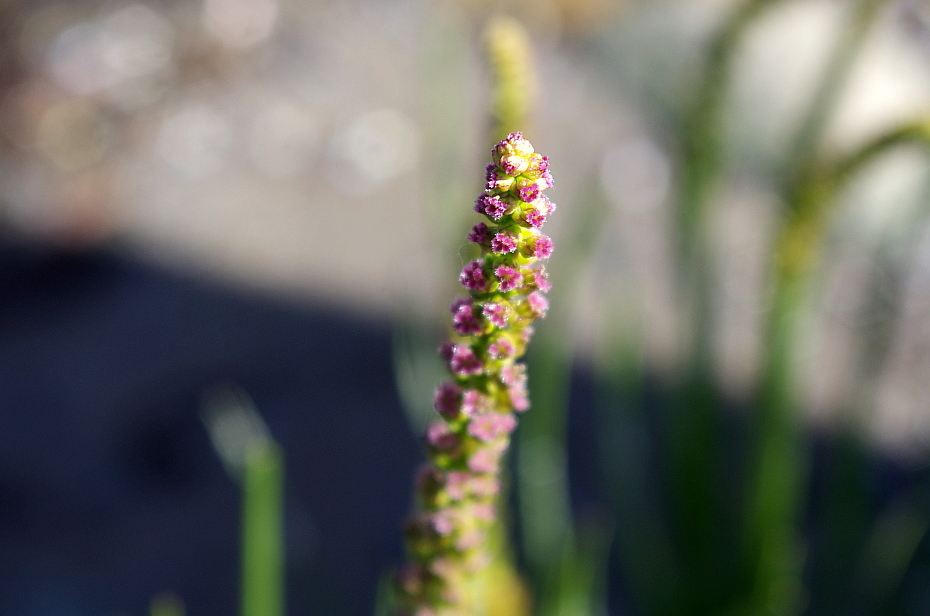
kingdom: Plantae
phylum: Tracheophyta
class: Liliopsida
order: Alismatales
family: Juncaginaceae
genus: Triglochin
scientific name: Triglochin maritima
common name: Sea arrowgrass
